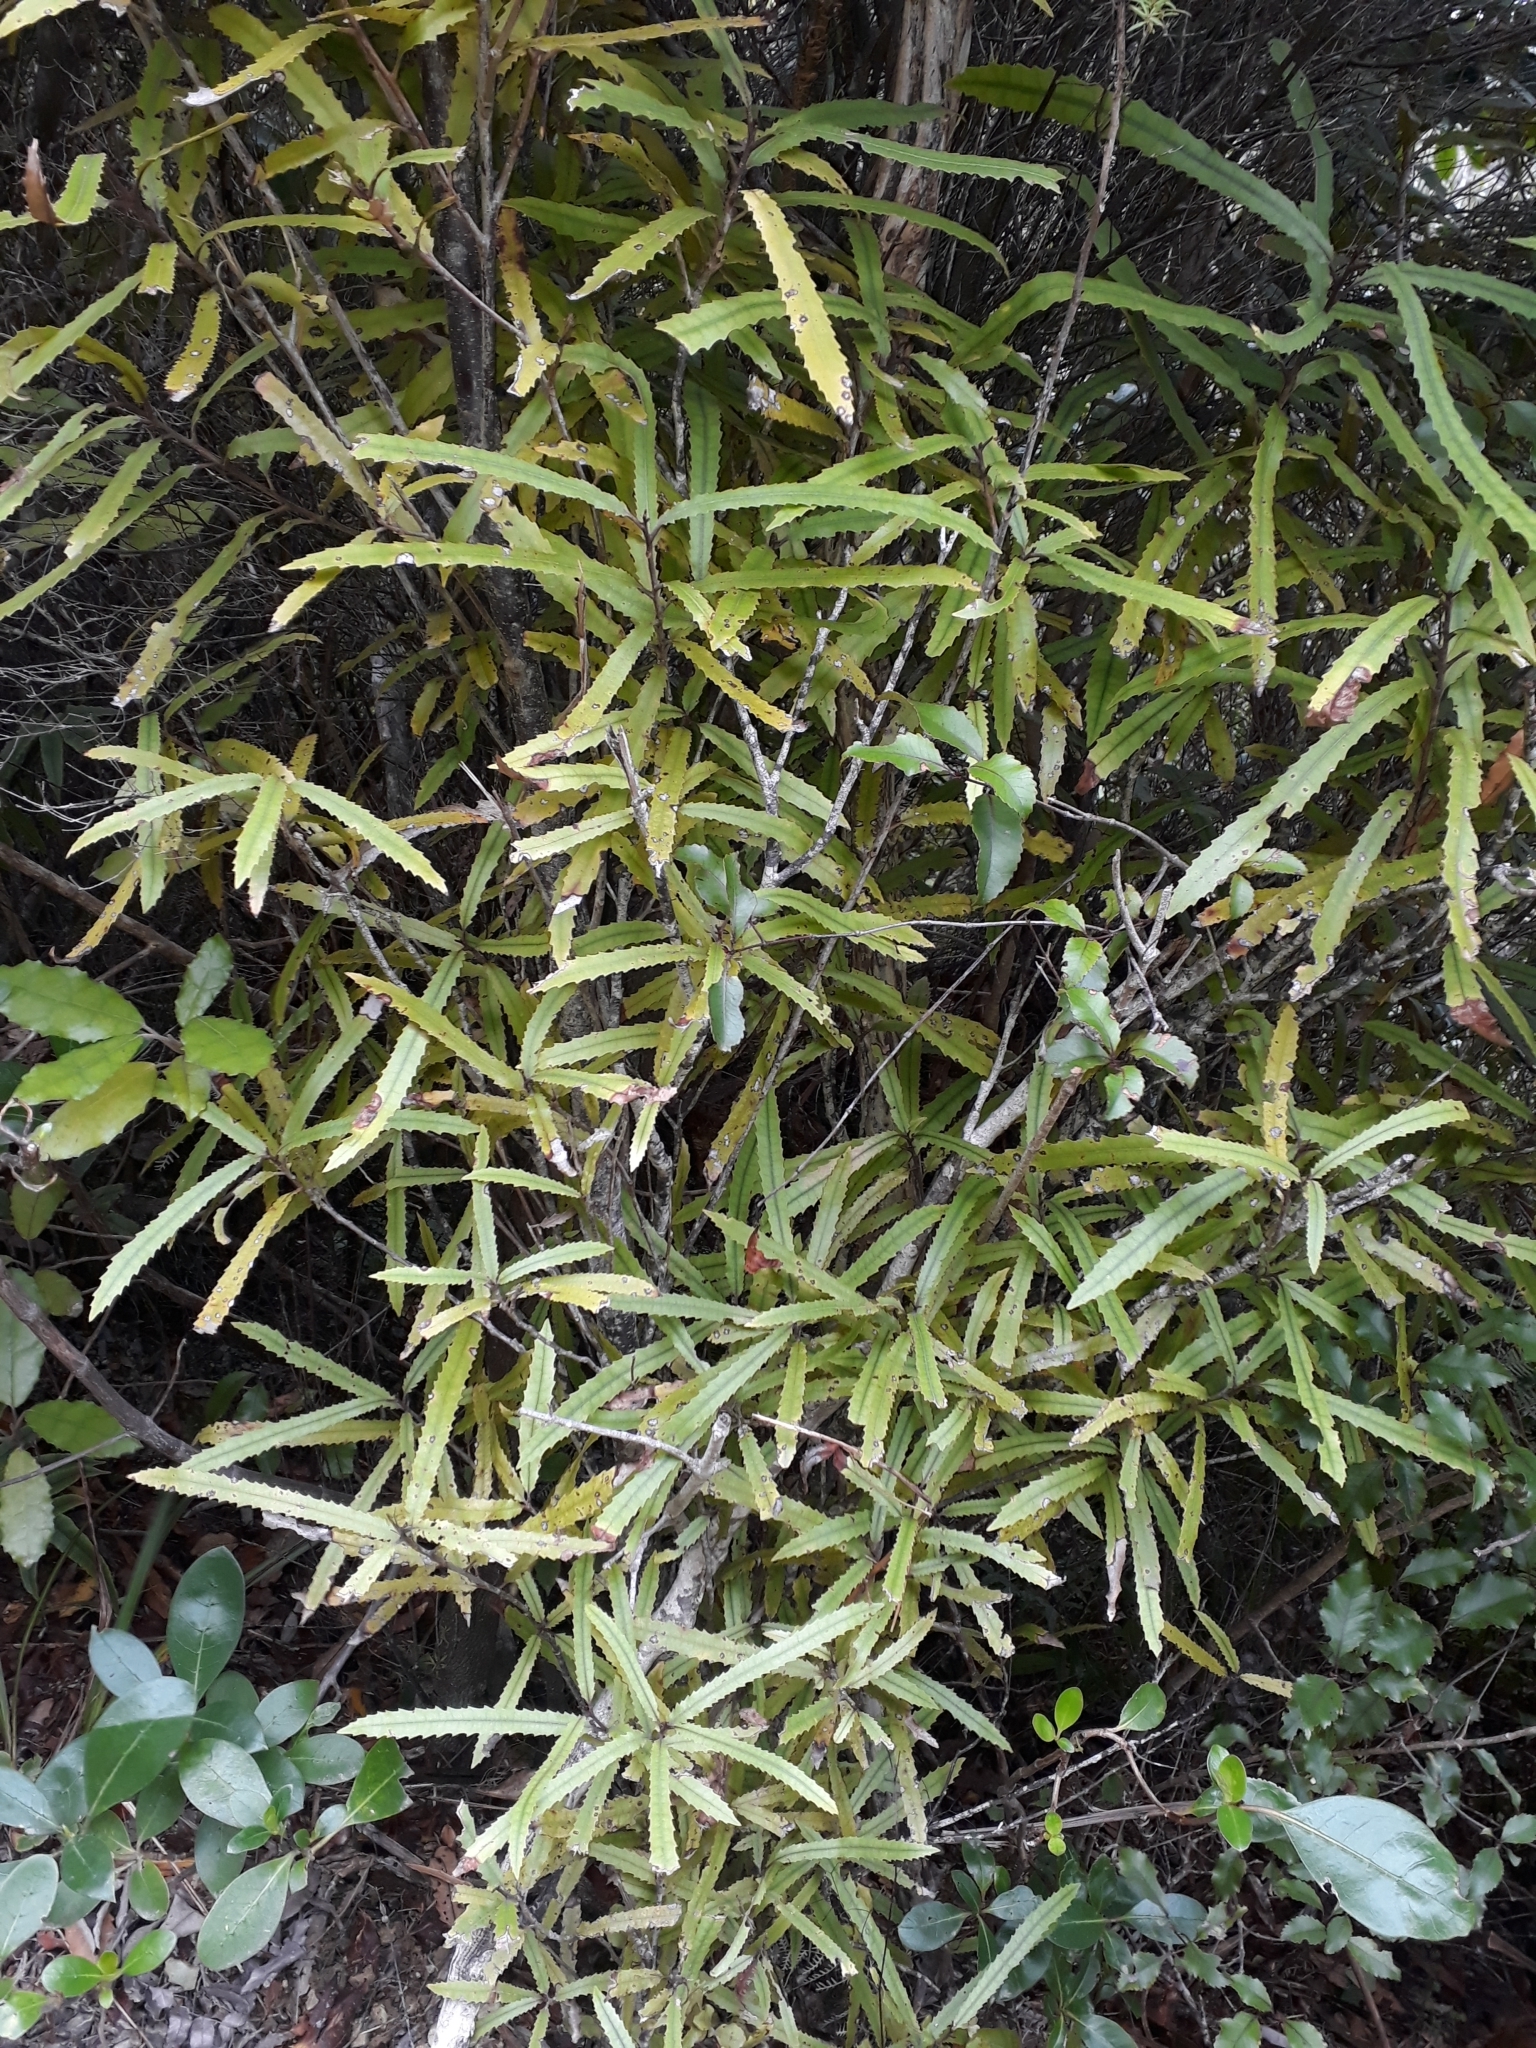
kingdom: Plantae
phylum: Tracheophyta
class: Magnoliopsida
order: Proteales
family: Proteaceae
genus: Knightia
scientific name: Knightia excelsa
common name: New zealand-honeysuckle
